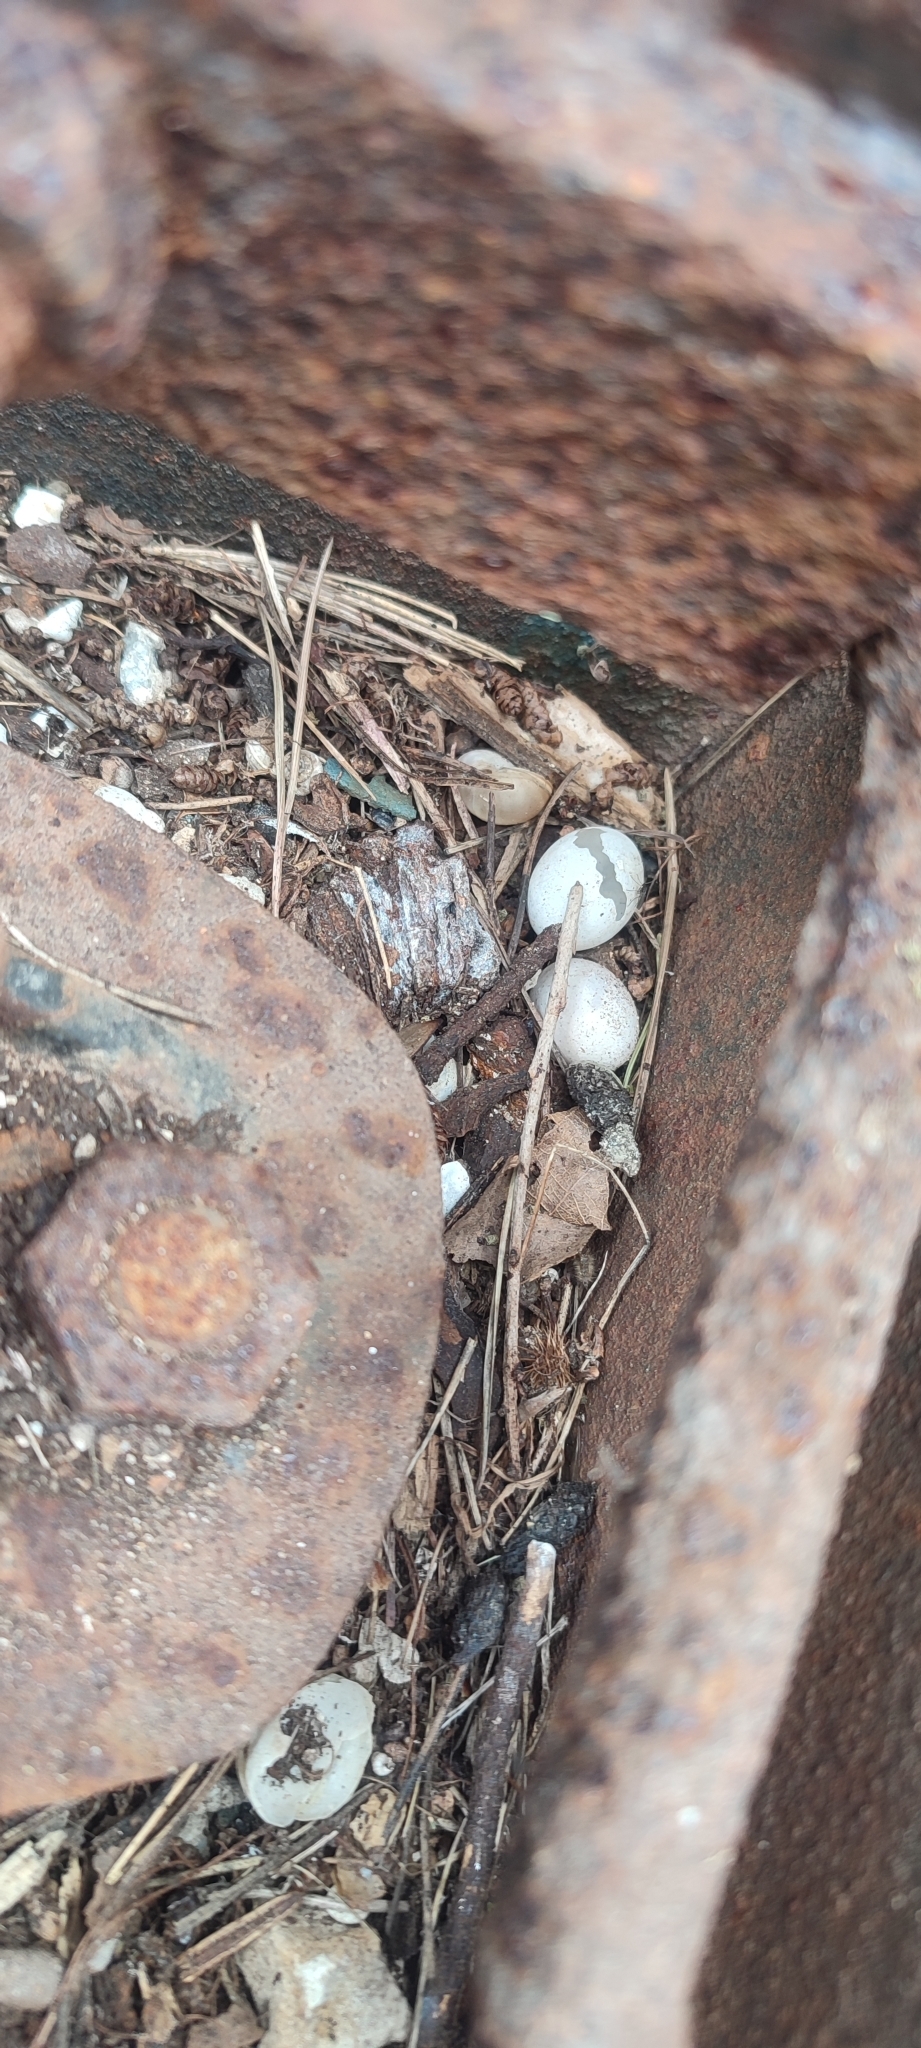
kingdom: Animalia
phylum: Chordata
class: Squamata
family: Phyllodactylidae
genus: Tarentola
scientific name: Tarentola mauritanica
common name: Moorish gecko
